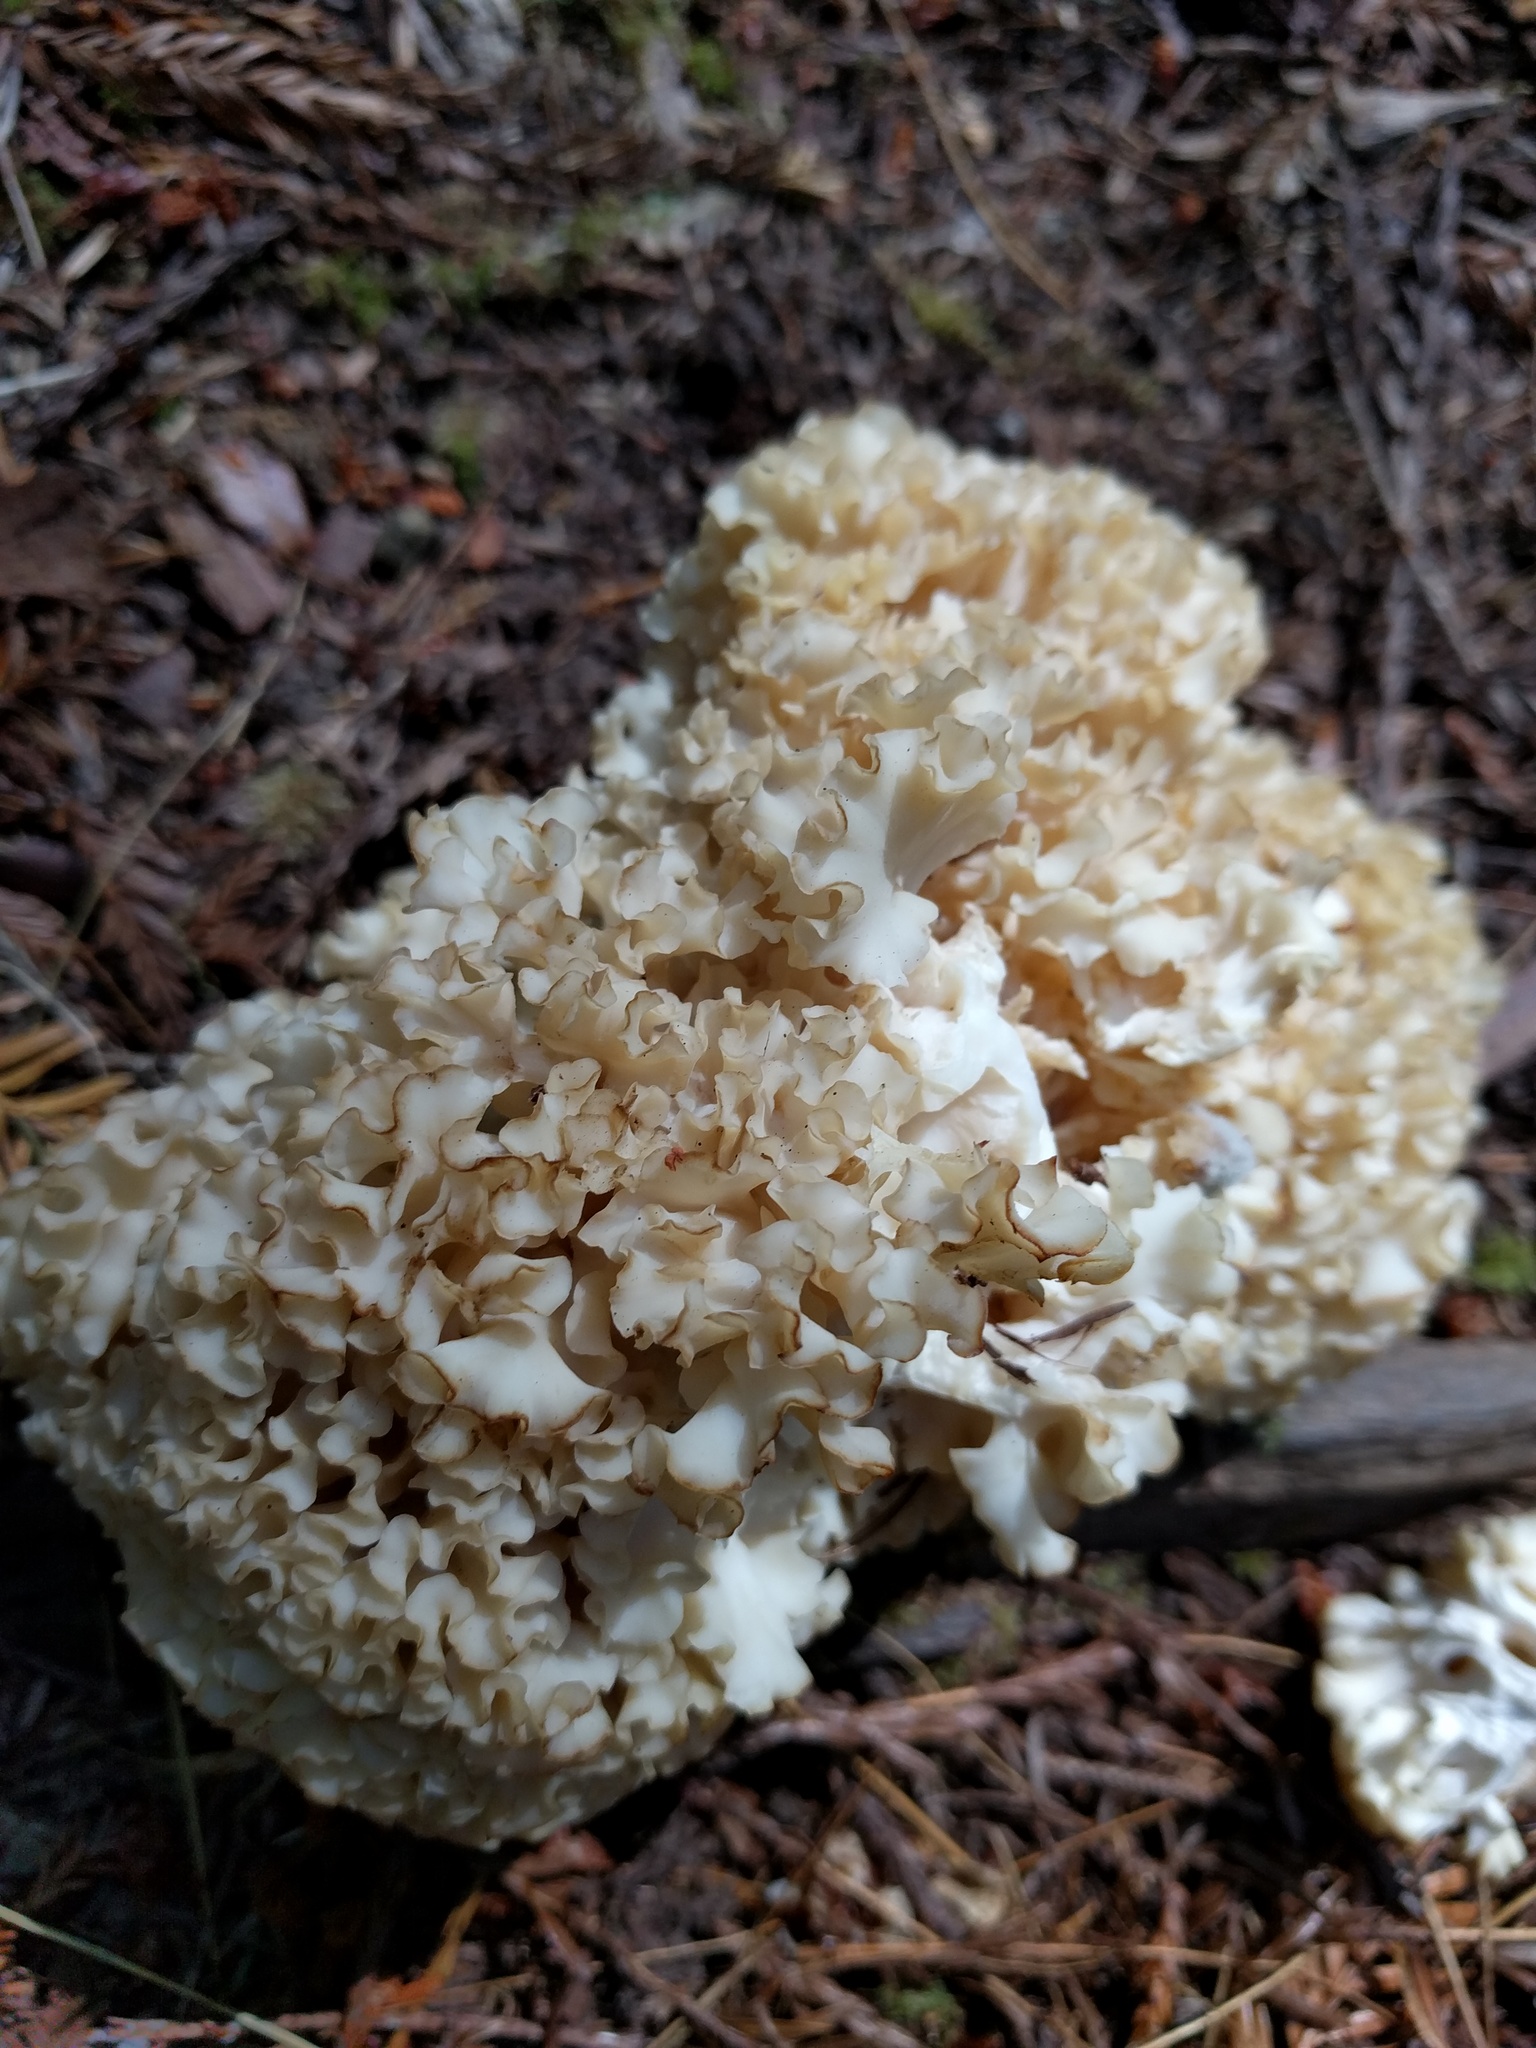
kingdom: Fungi
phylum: Basidiomycota
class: Agaricomycetes
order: Polyporales
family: Sparassidaceae
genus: Sparassis
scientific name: Sparassis radicata
